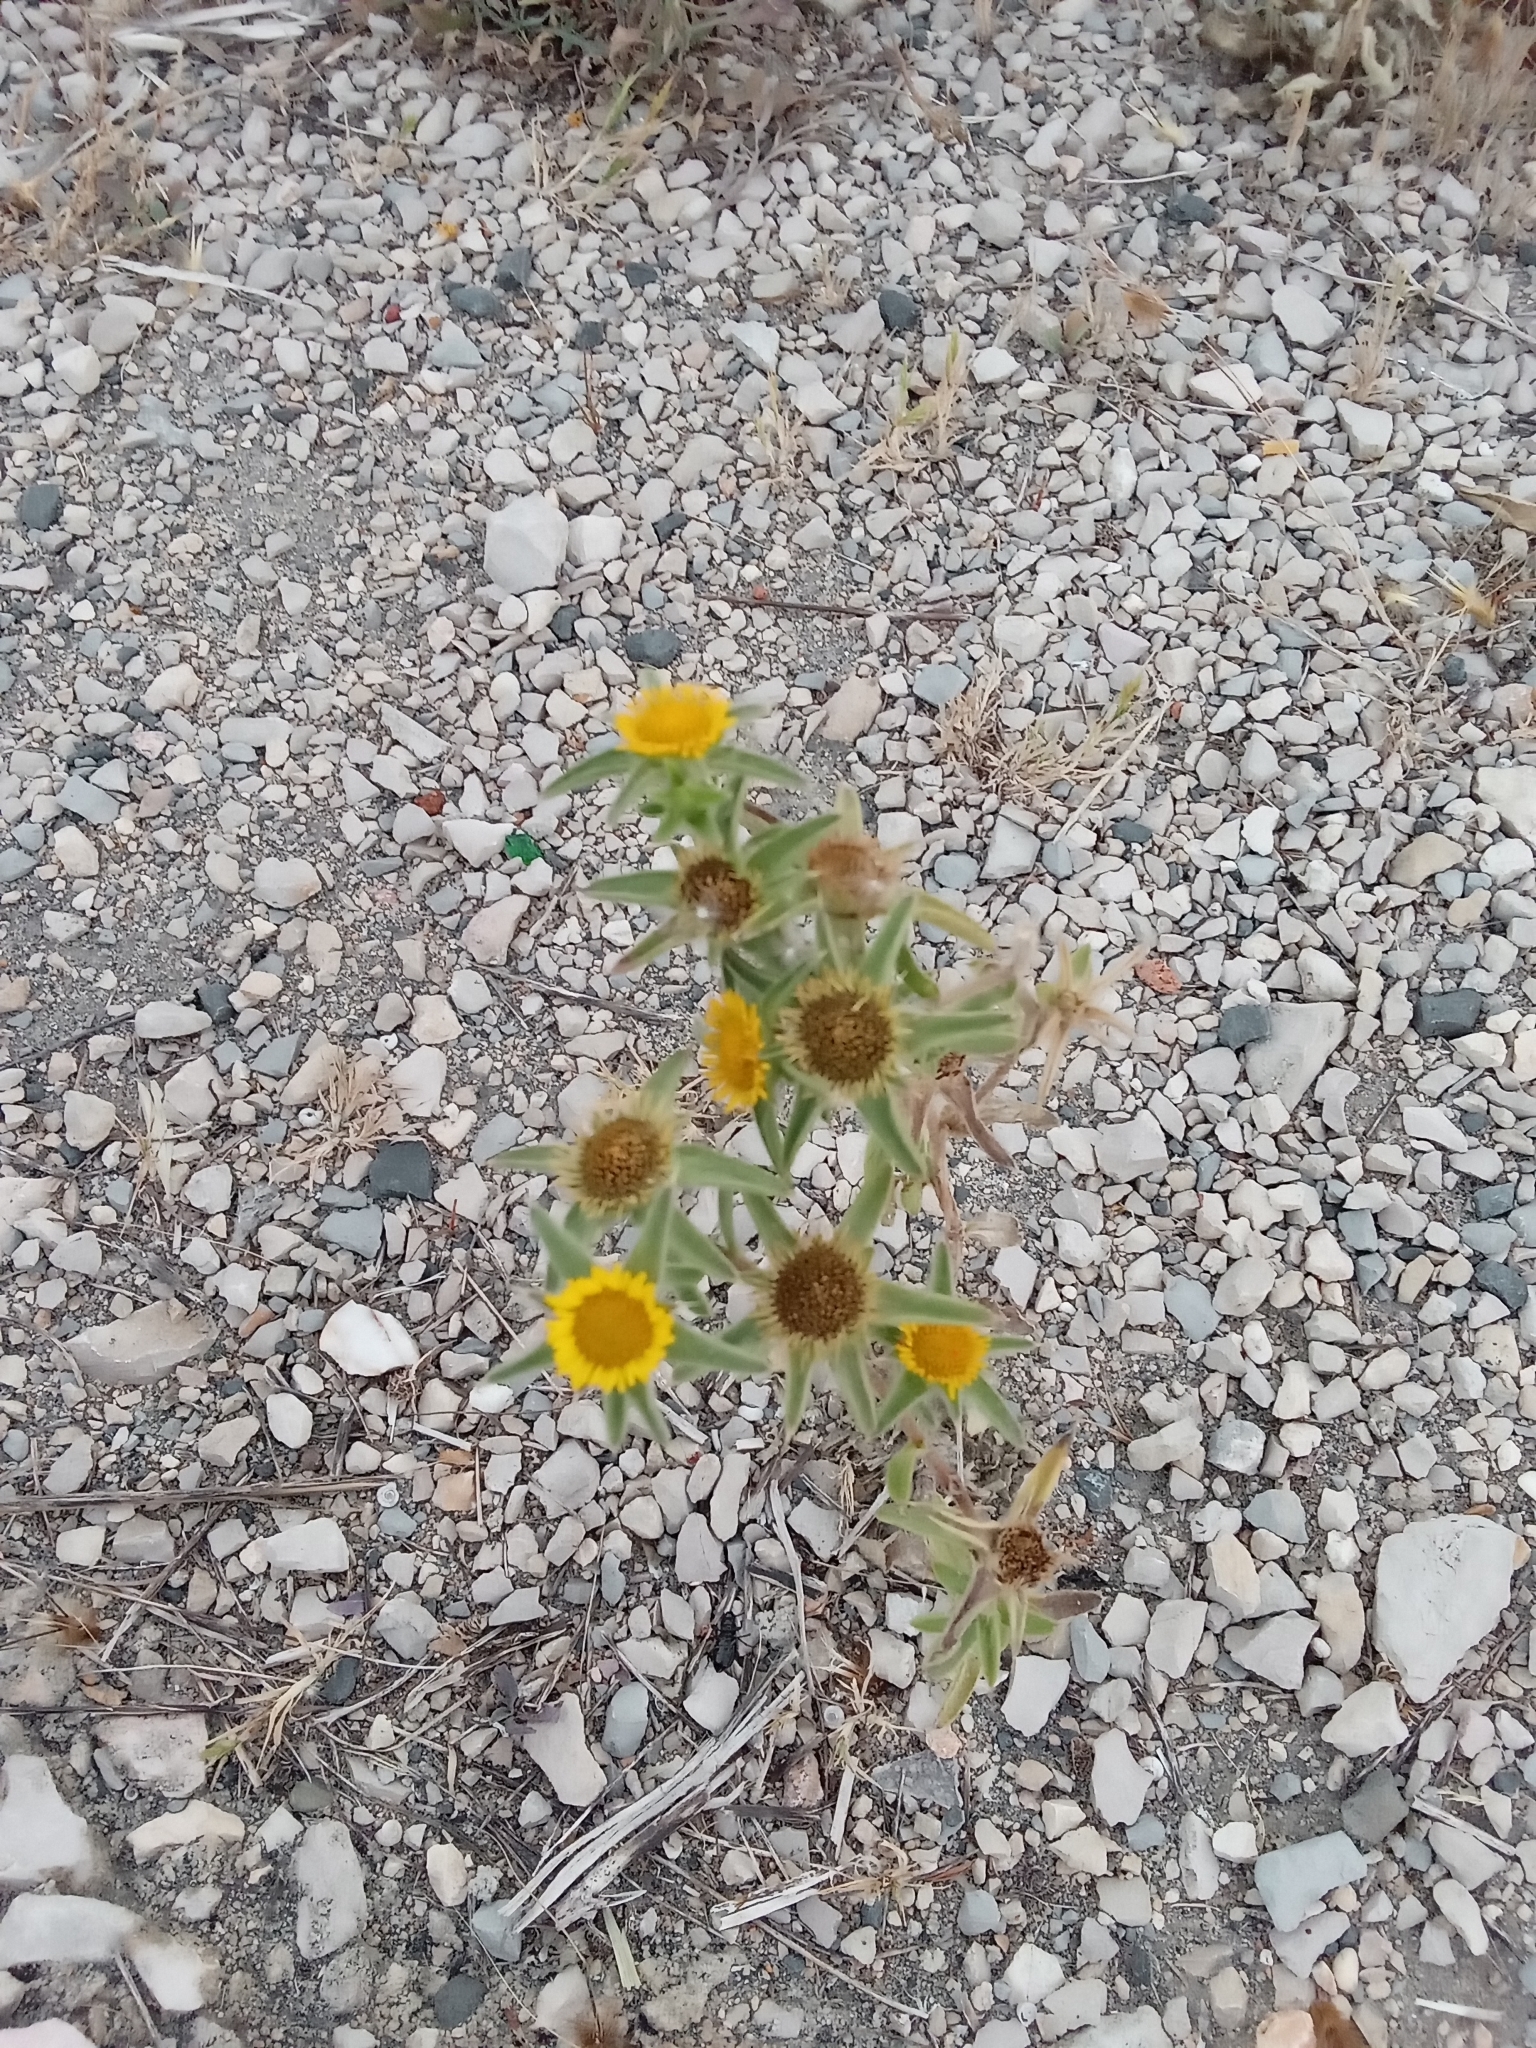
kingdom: Plantae
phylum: Tracheophyta
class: Magnoliopsida
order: Asterales
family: Asteraceae
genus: Pallenis
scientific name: Pallenis spinosa
